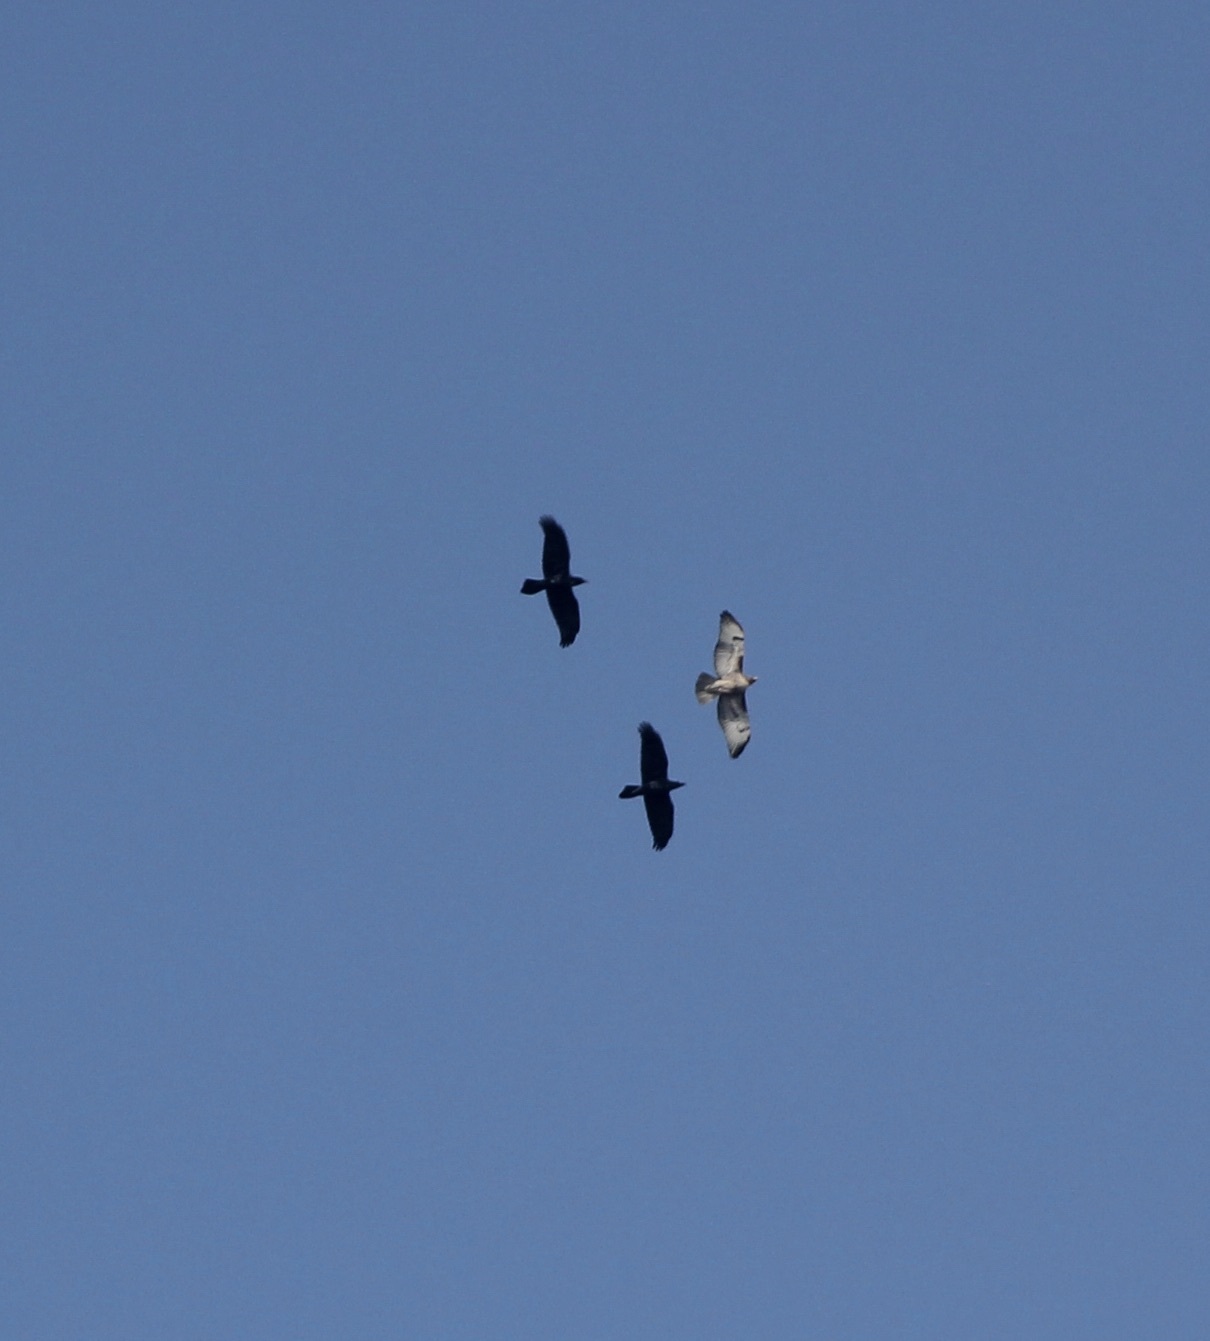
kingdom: Animalia
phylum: Chordata
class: Aves
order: Accipitriformes
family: Accipitridae
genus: Buteo
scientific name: Buteo jamaicensis
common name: Red-tailed hawk
